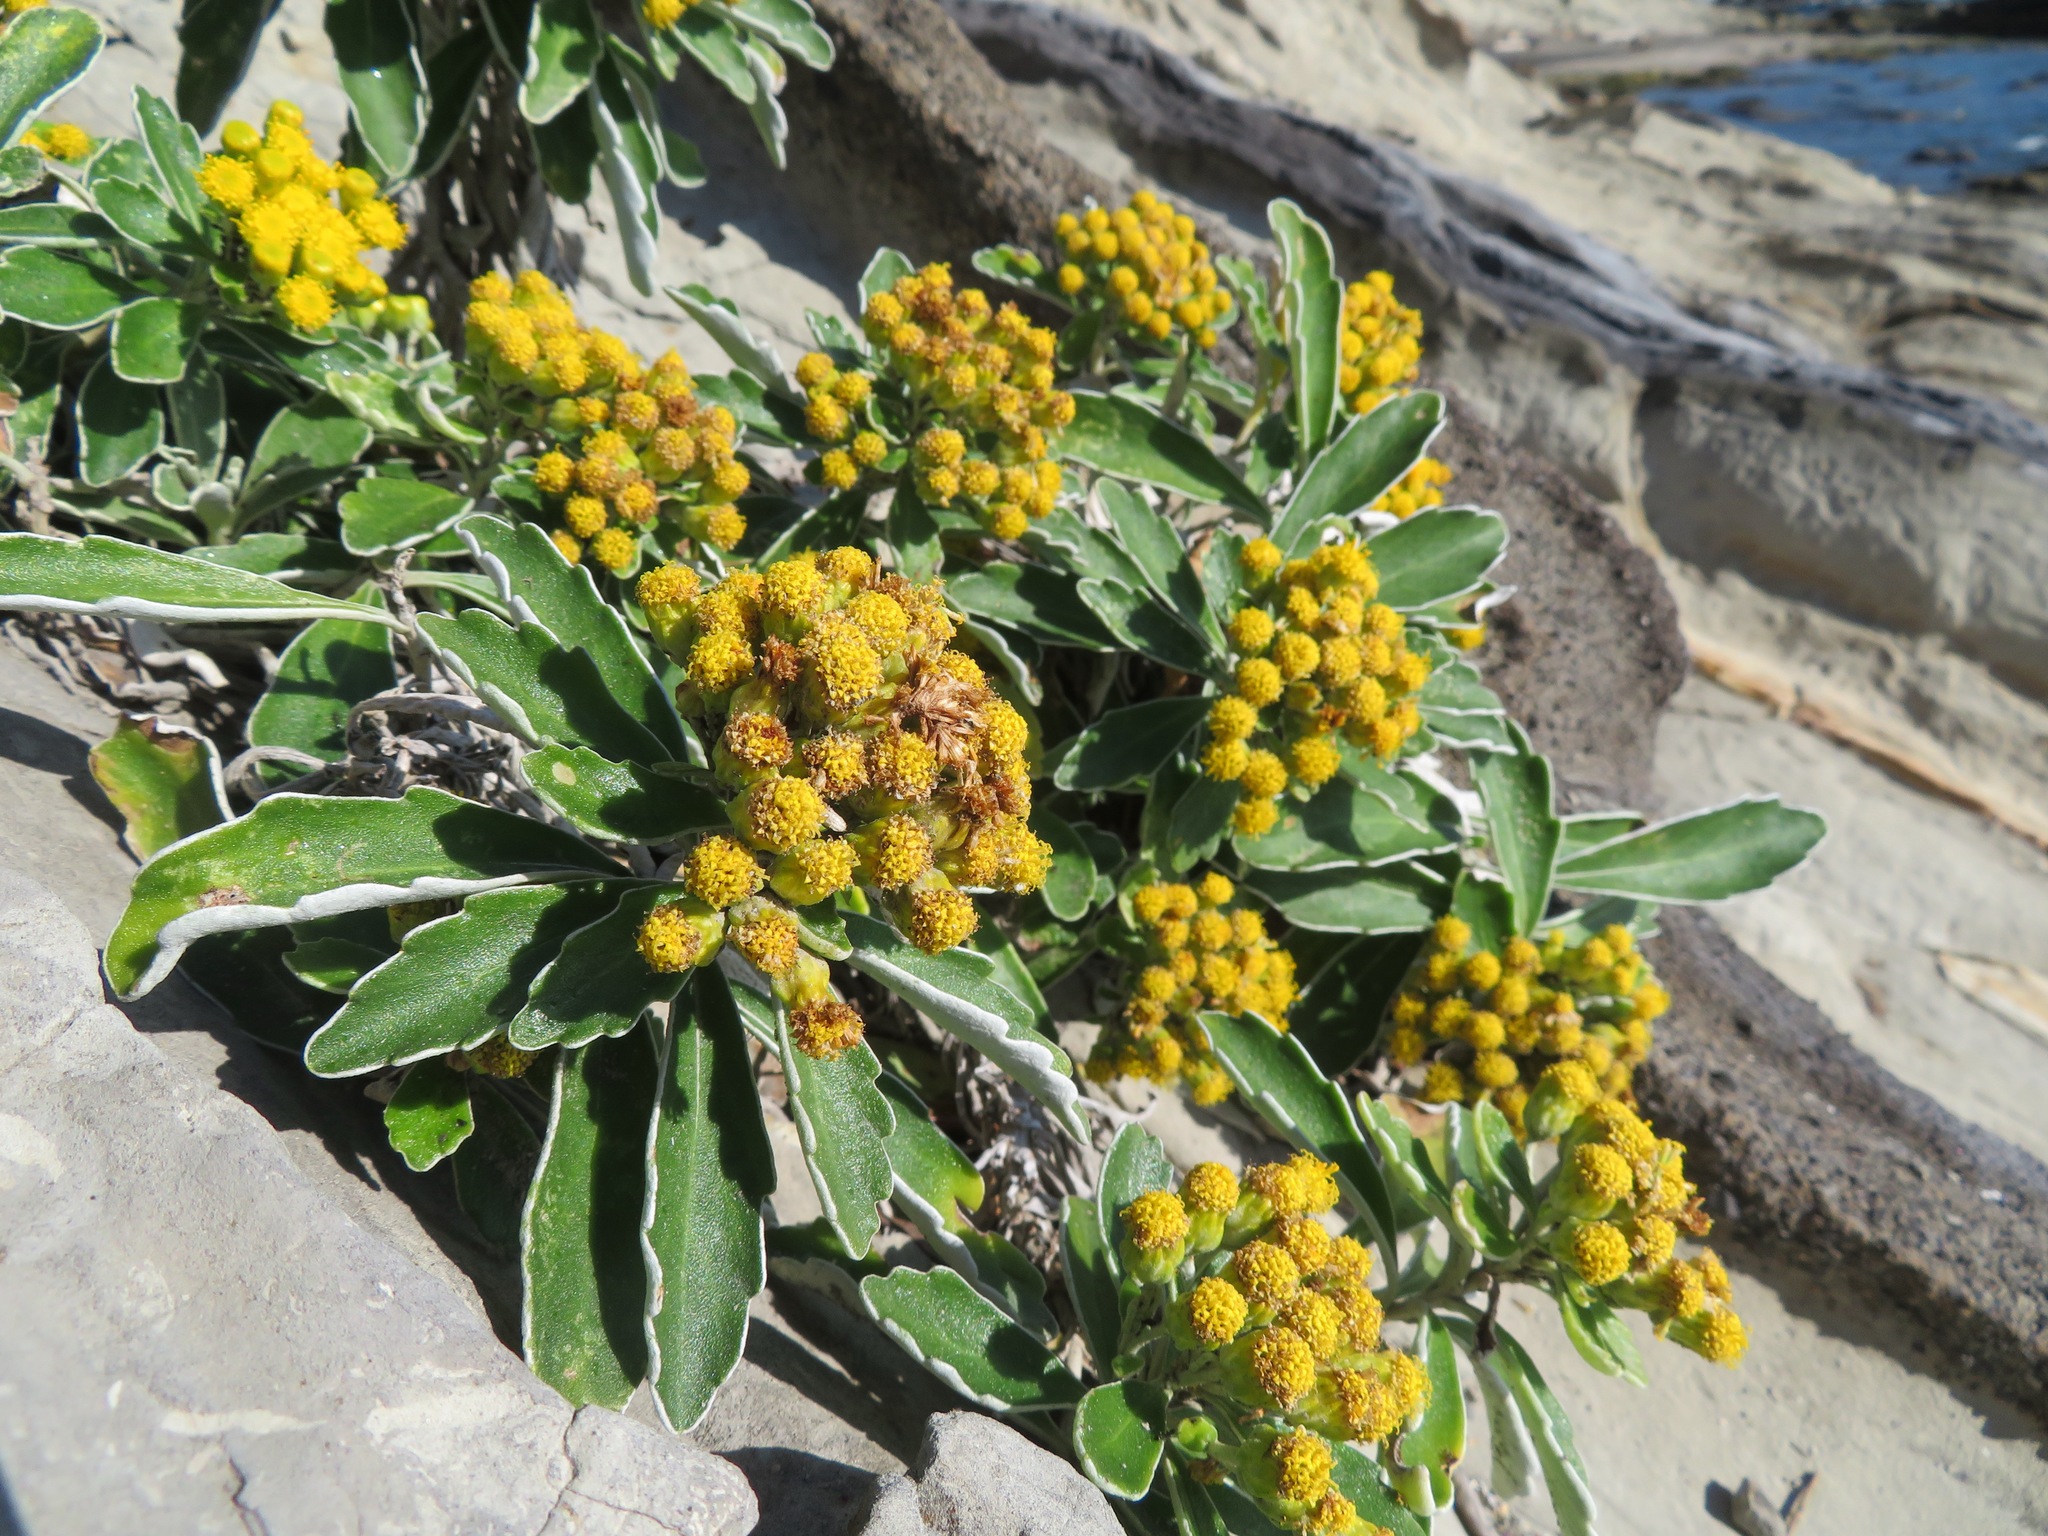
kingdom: Plantae
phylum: Tracheophyta
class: Magnoliopsida
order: Asterales
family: Asteraceae
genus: Ajania
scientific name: Ajania pacifica
